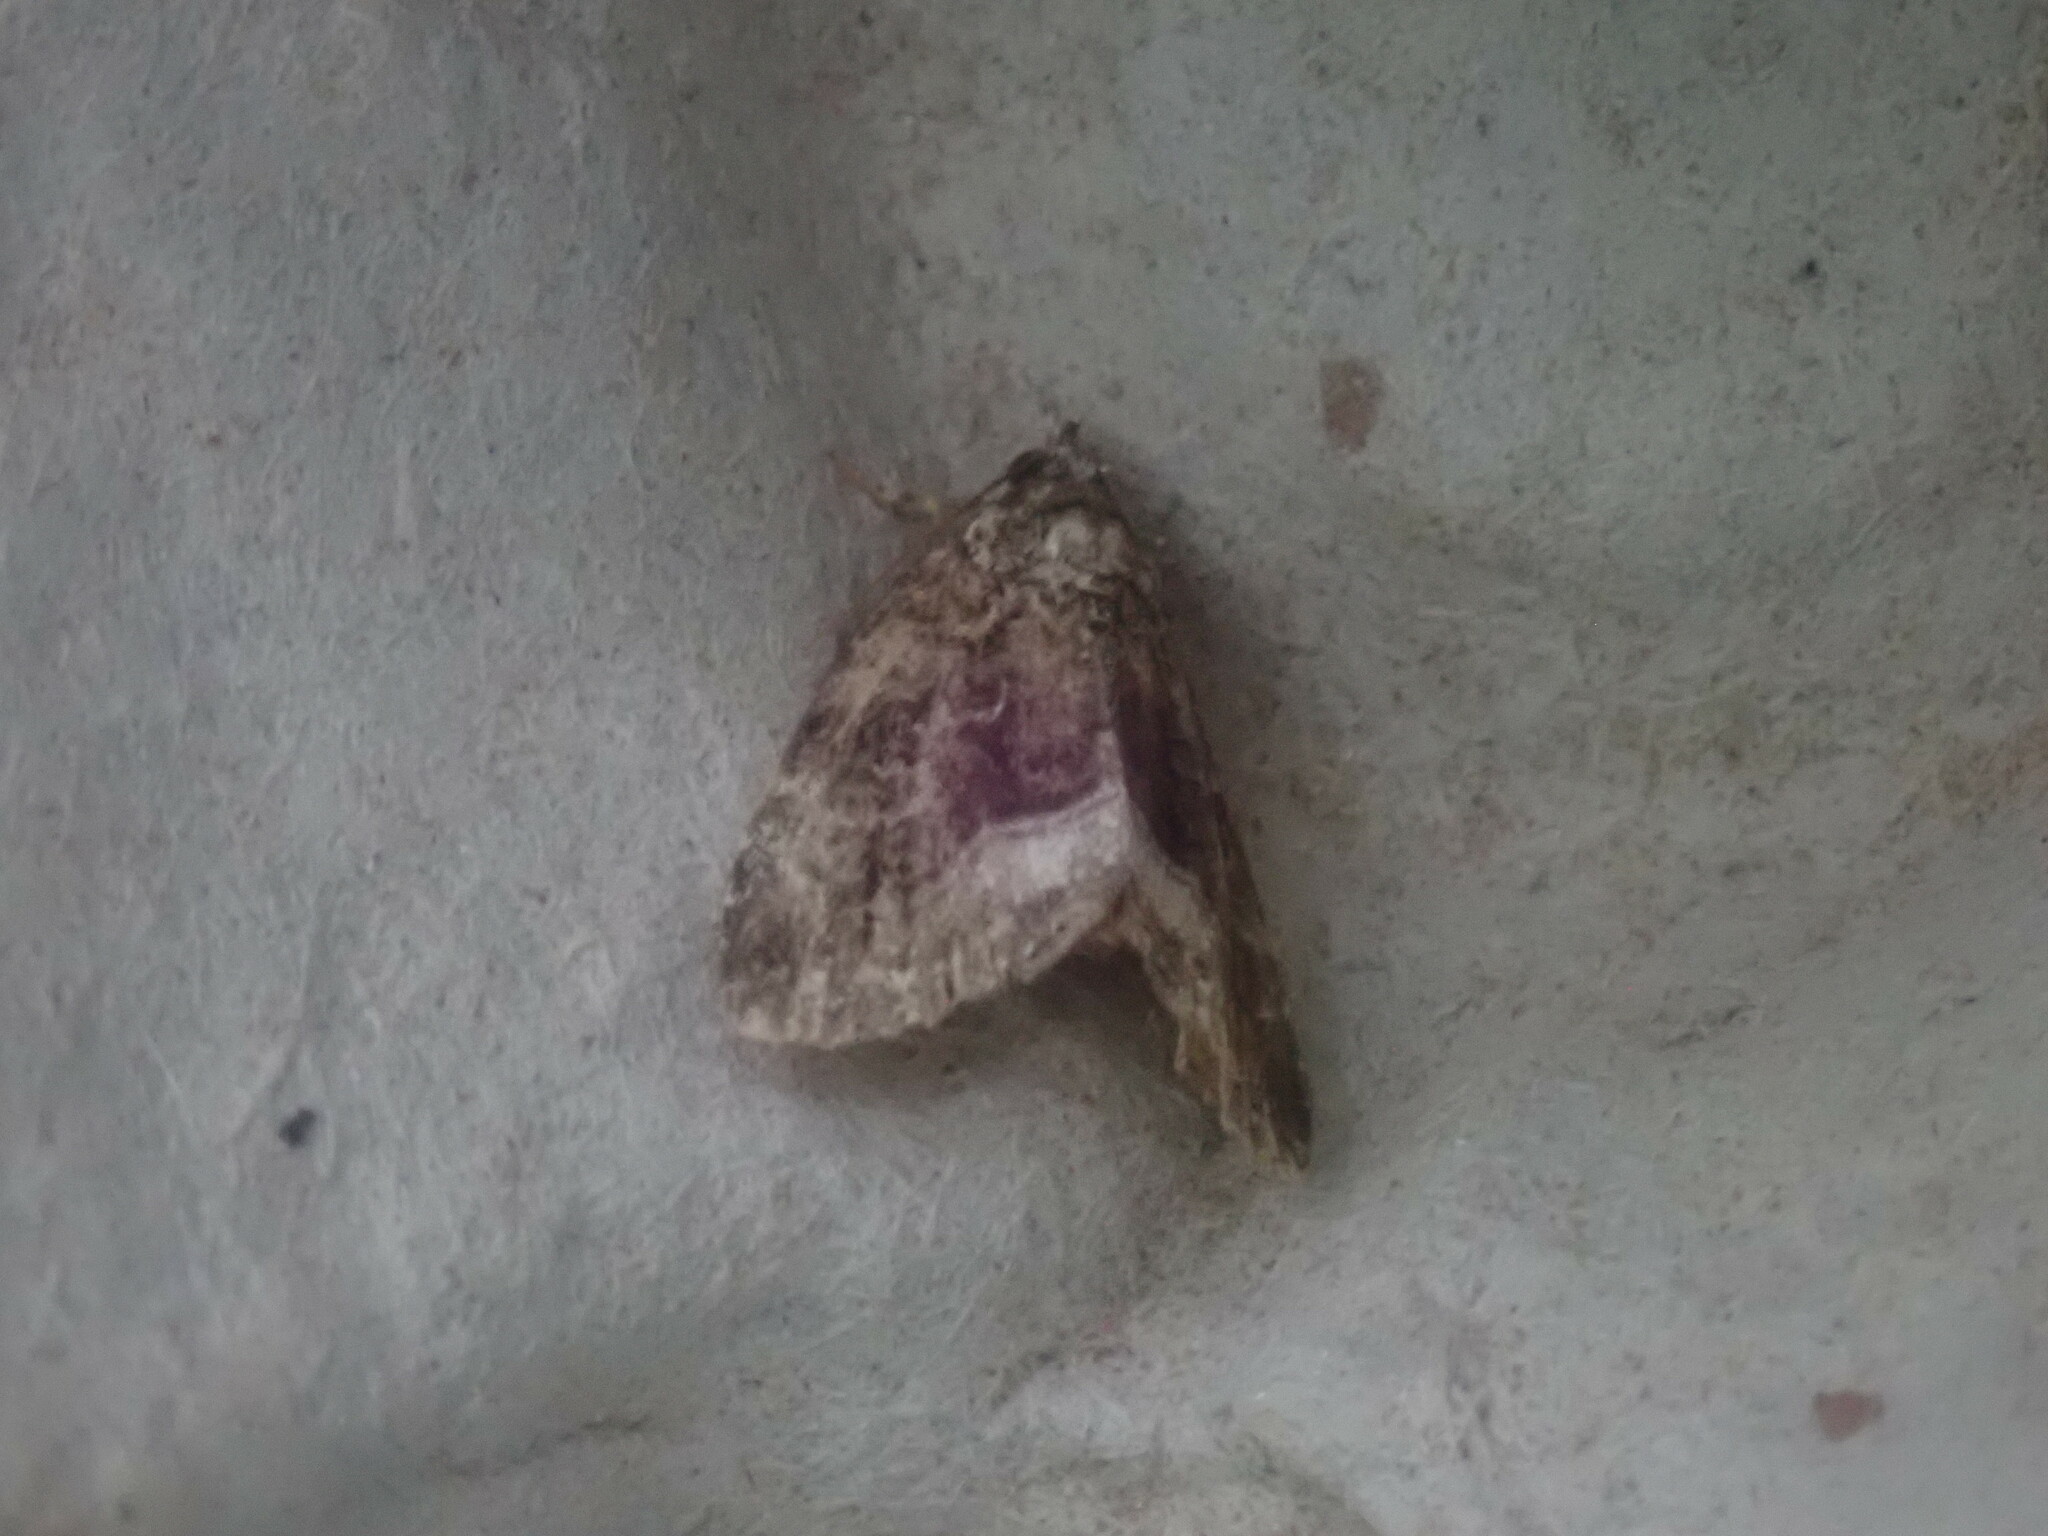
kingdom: Animalia
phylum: Arthropoda
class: Insecta
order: Lepidoptera
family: Noctuidae
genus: Protodeltote
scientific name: Protodeltote muscosula
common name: Large mossy glyph
